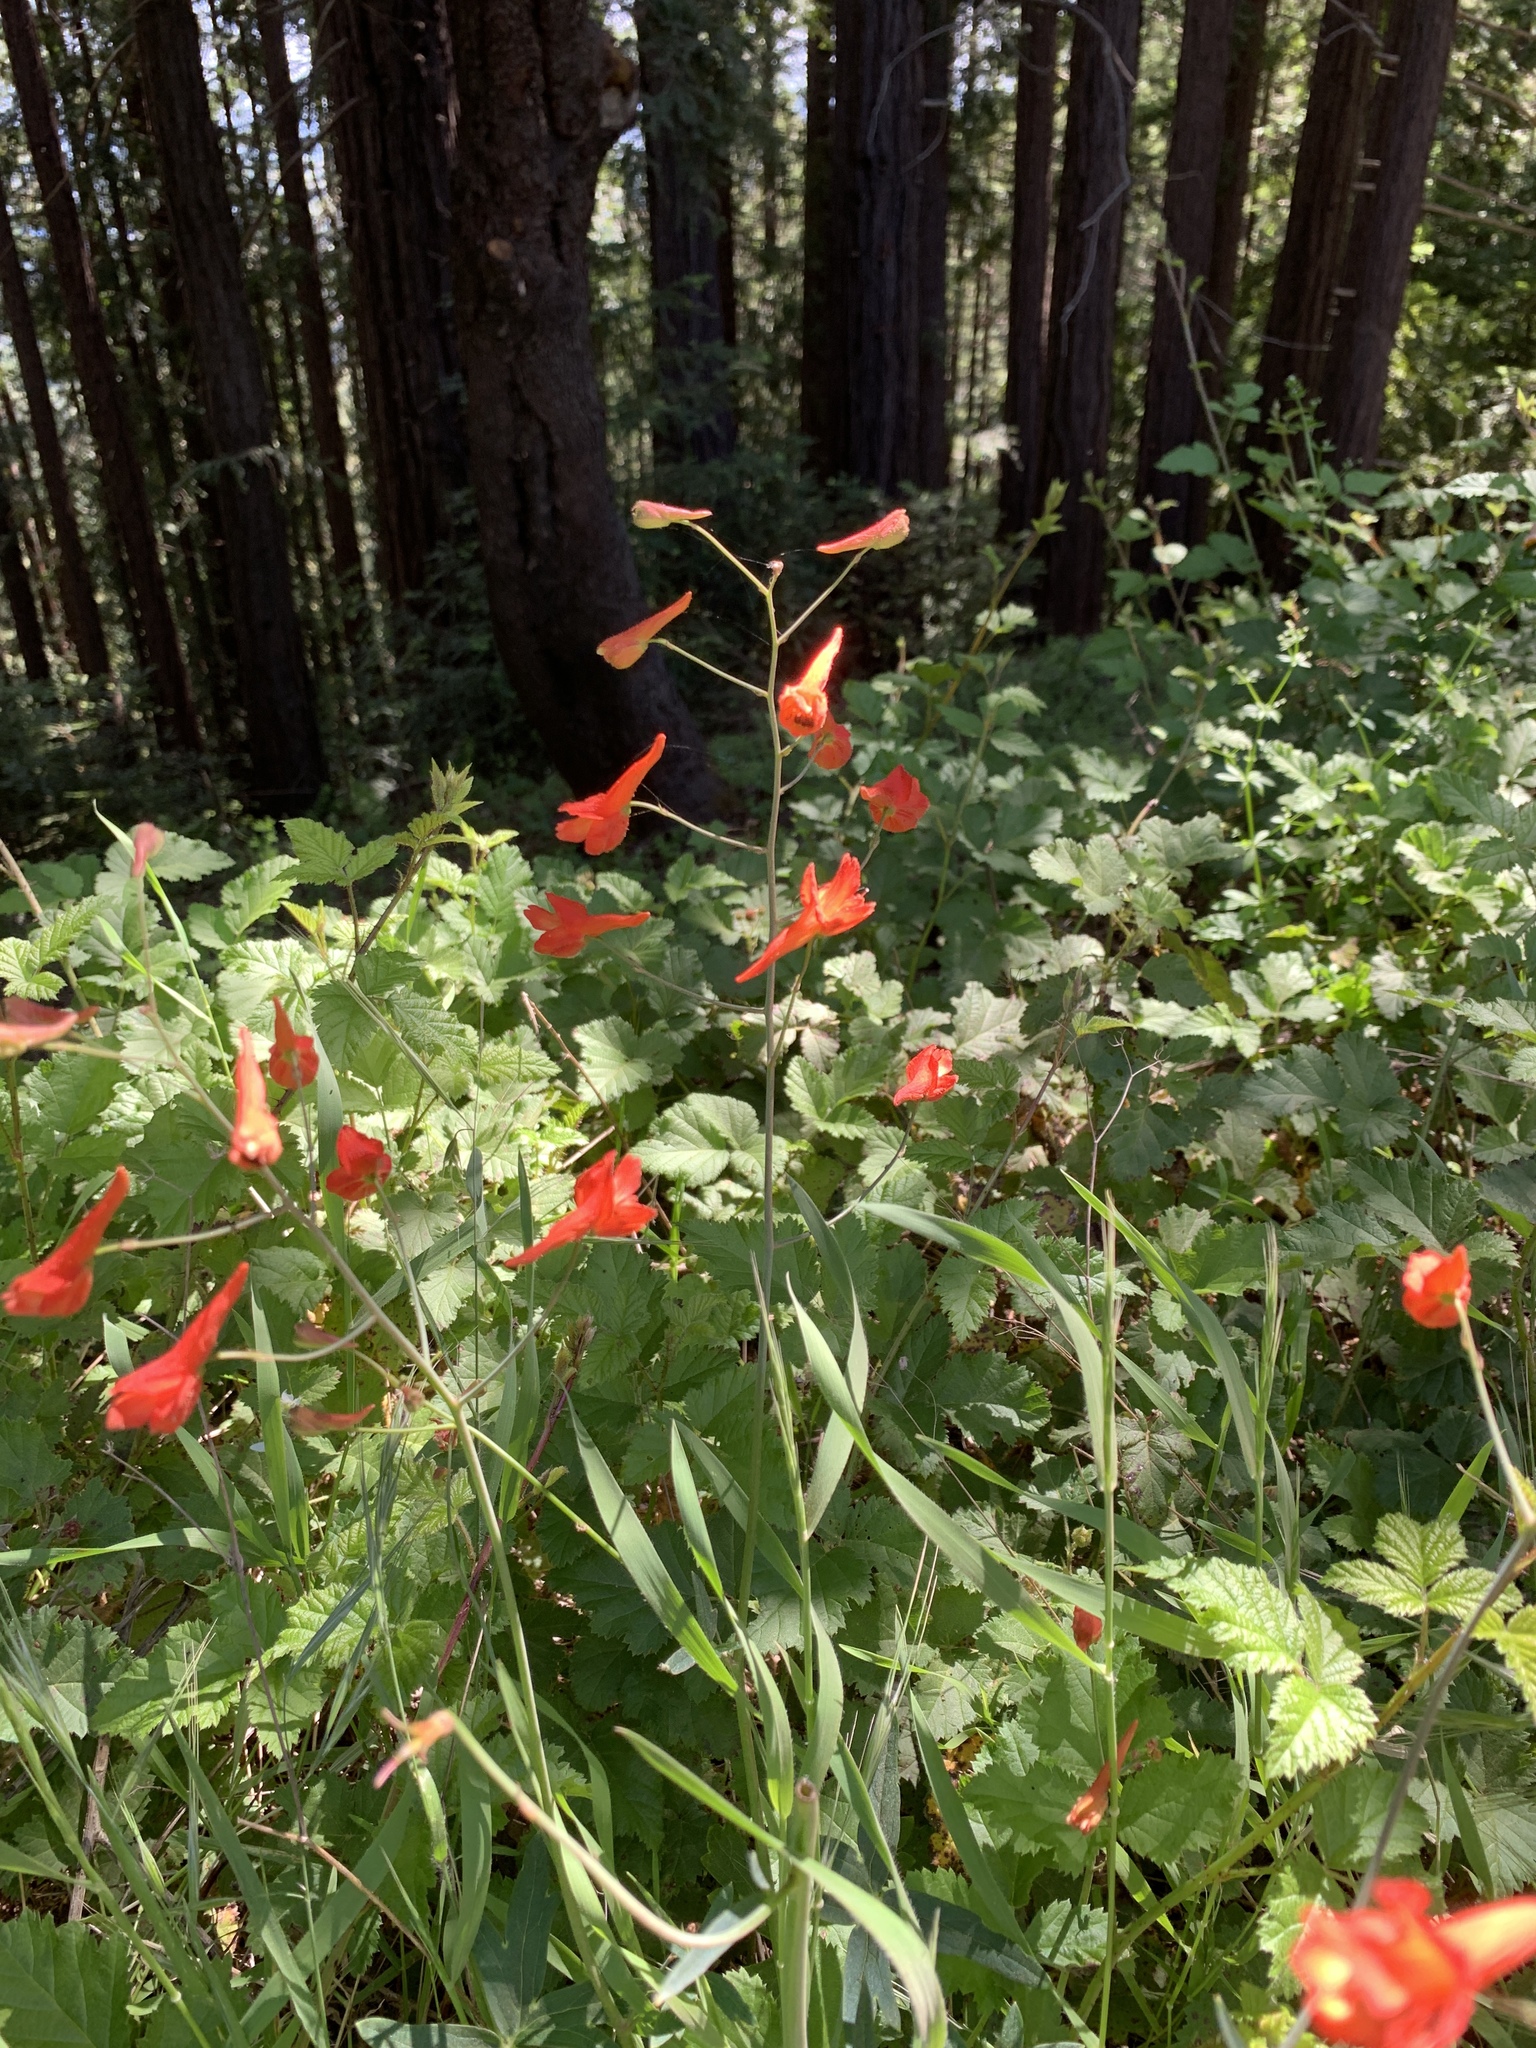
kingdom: Plantae
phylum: Tracheophyta
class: Magnoliopsida
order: Ranunculales
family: Ranunculaceae
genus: Delphinium
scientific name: Delphinium nudicaule
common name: Red larkspur
